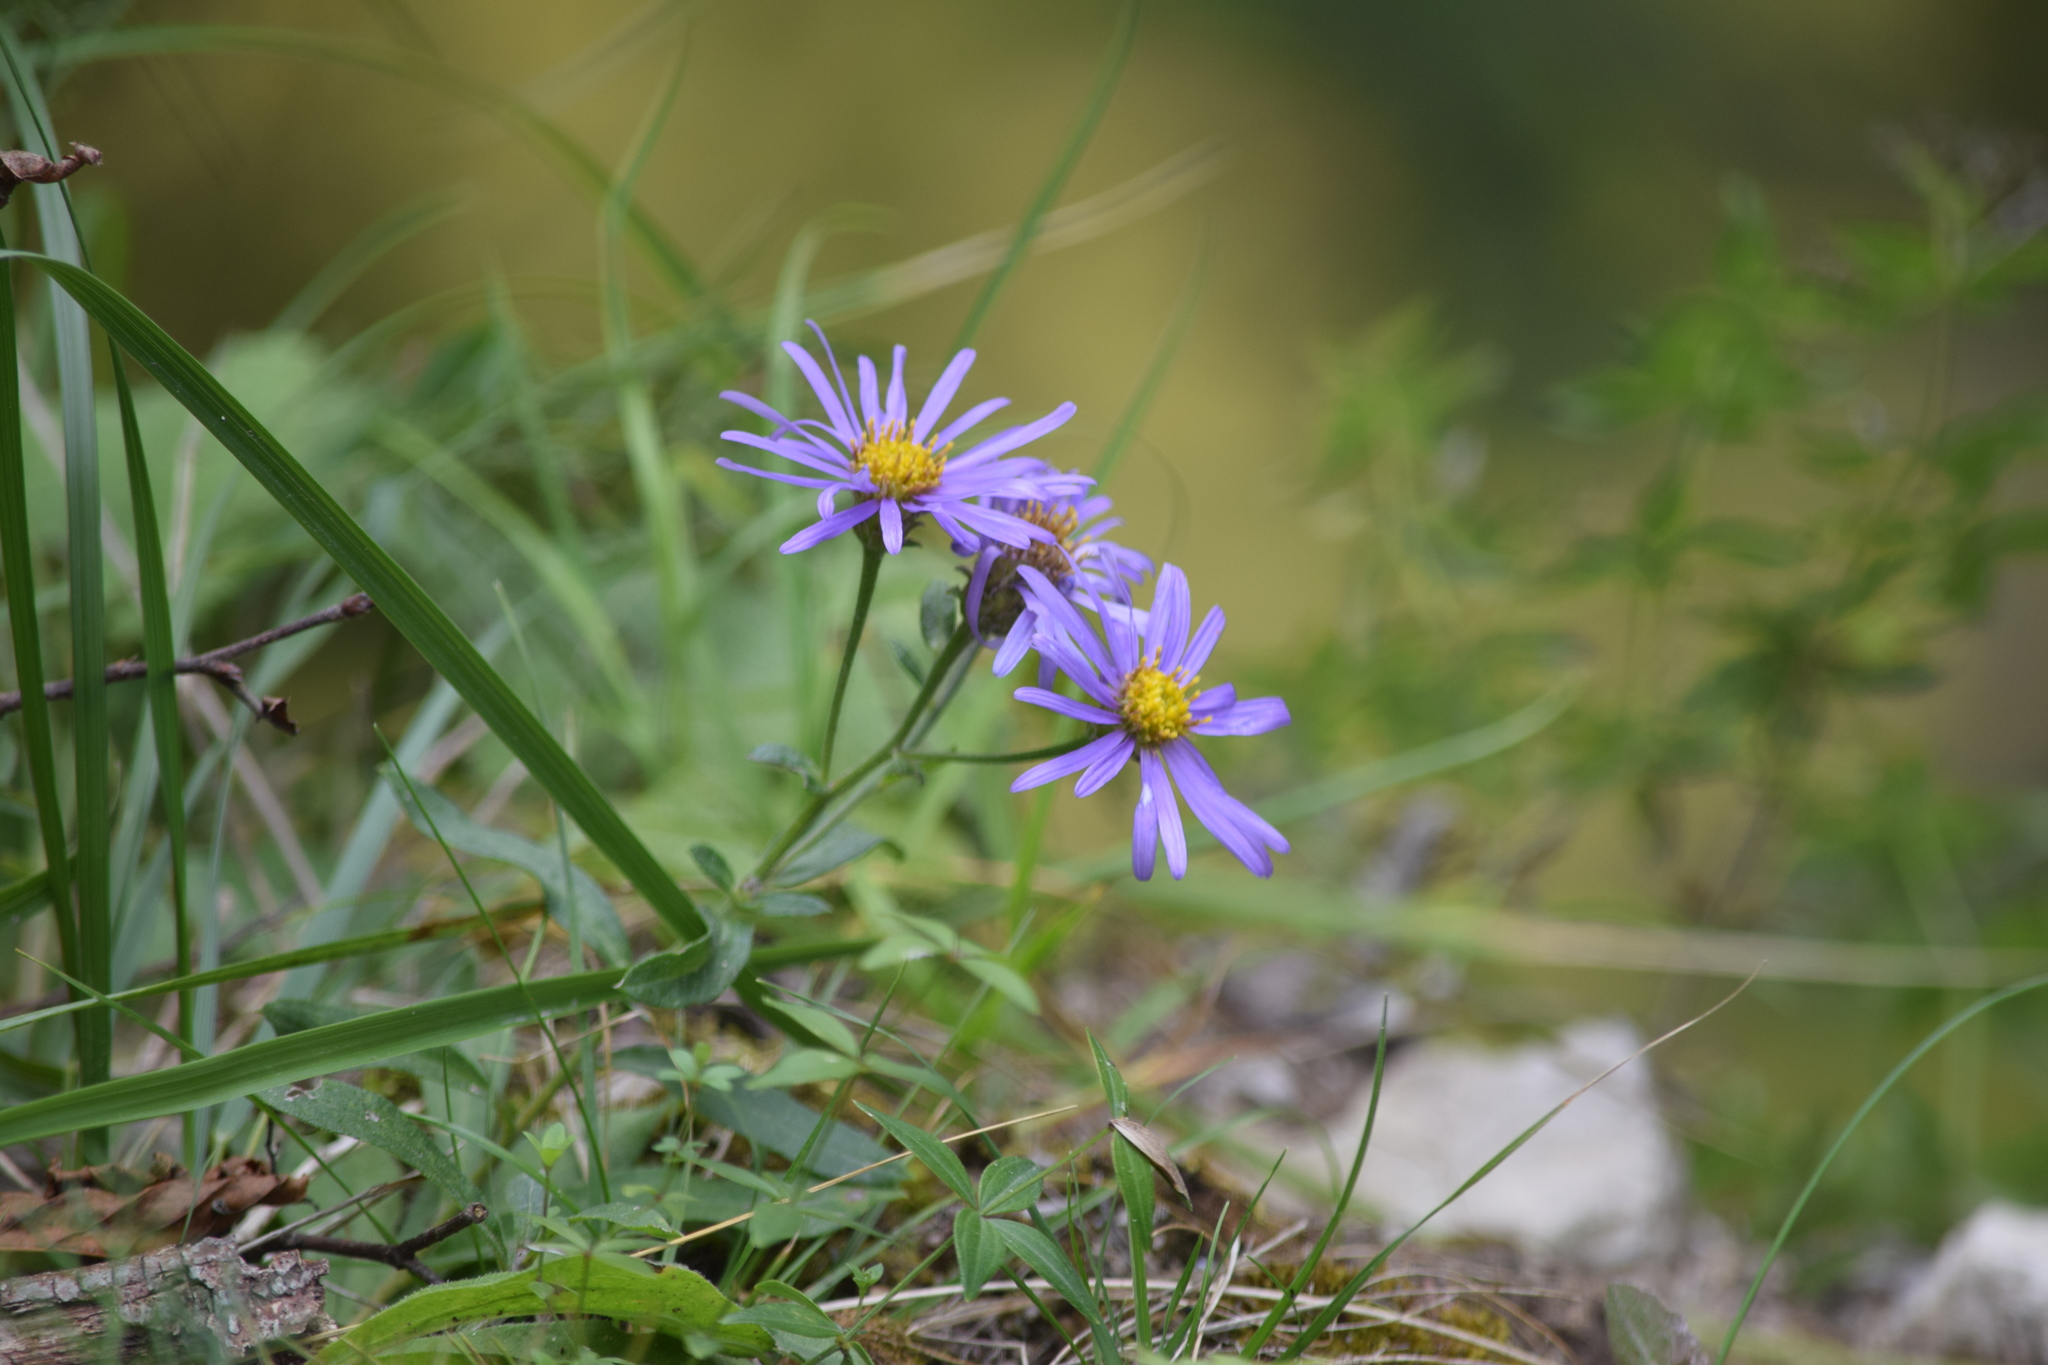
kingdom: Plantae
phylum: Tracheophyta
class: Magnoliopsida
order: Asterales
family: Asteraceae
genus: Aster
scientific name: Aster amellus
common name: European michaelmas daisy
